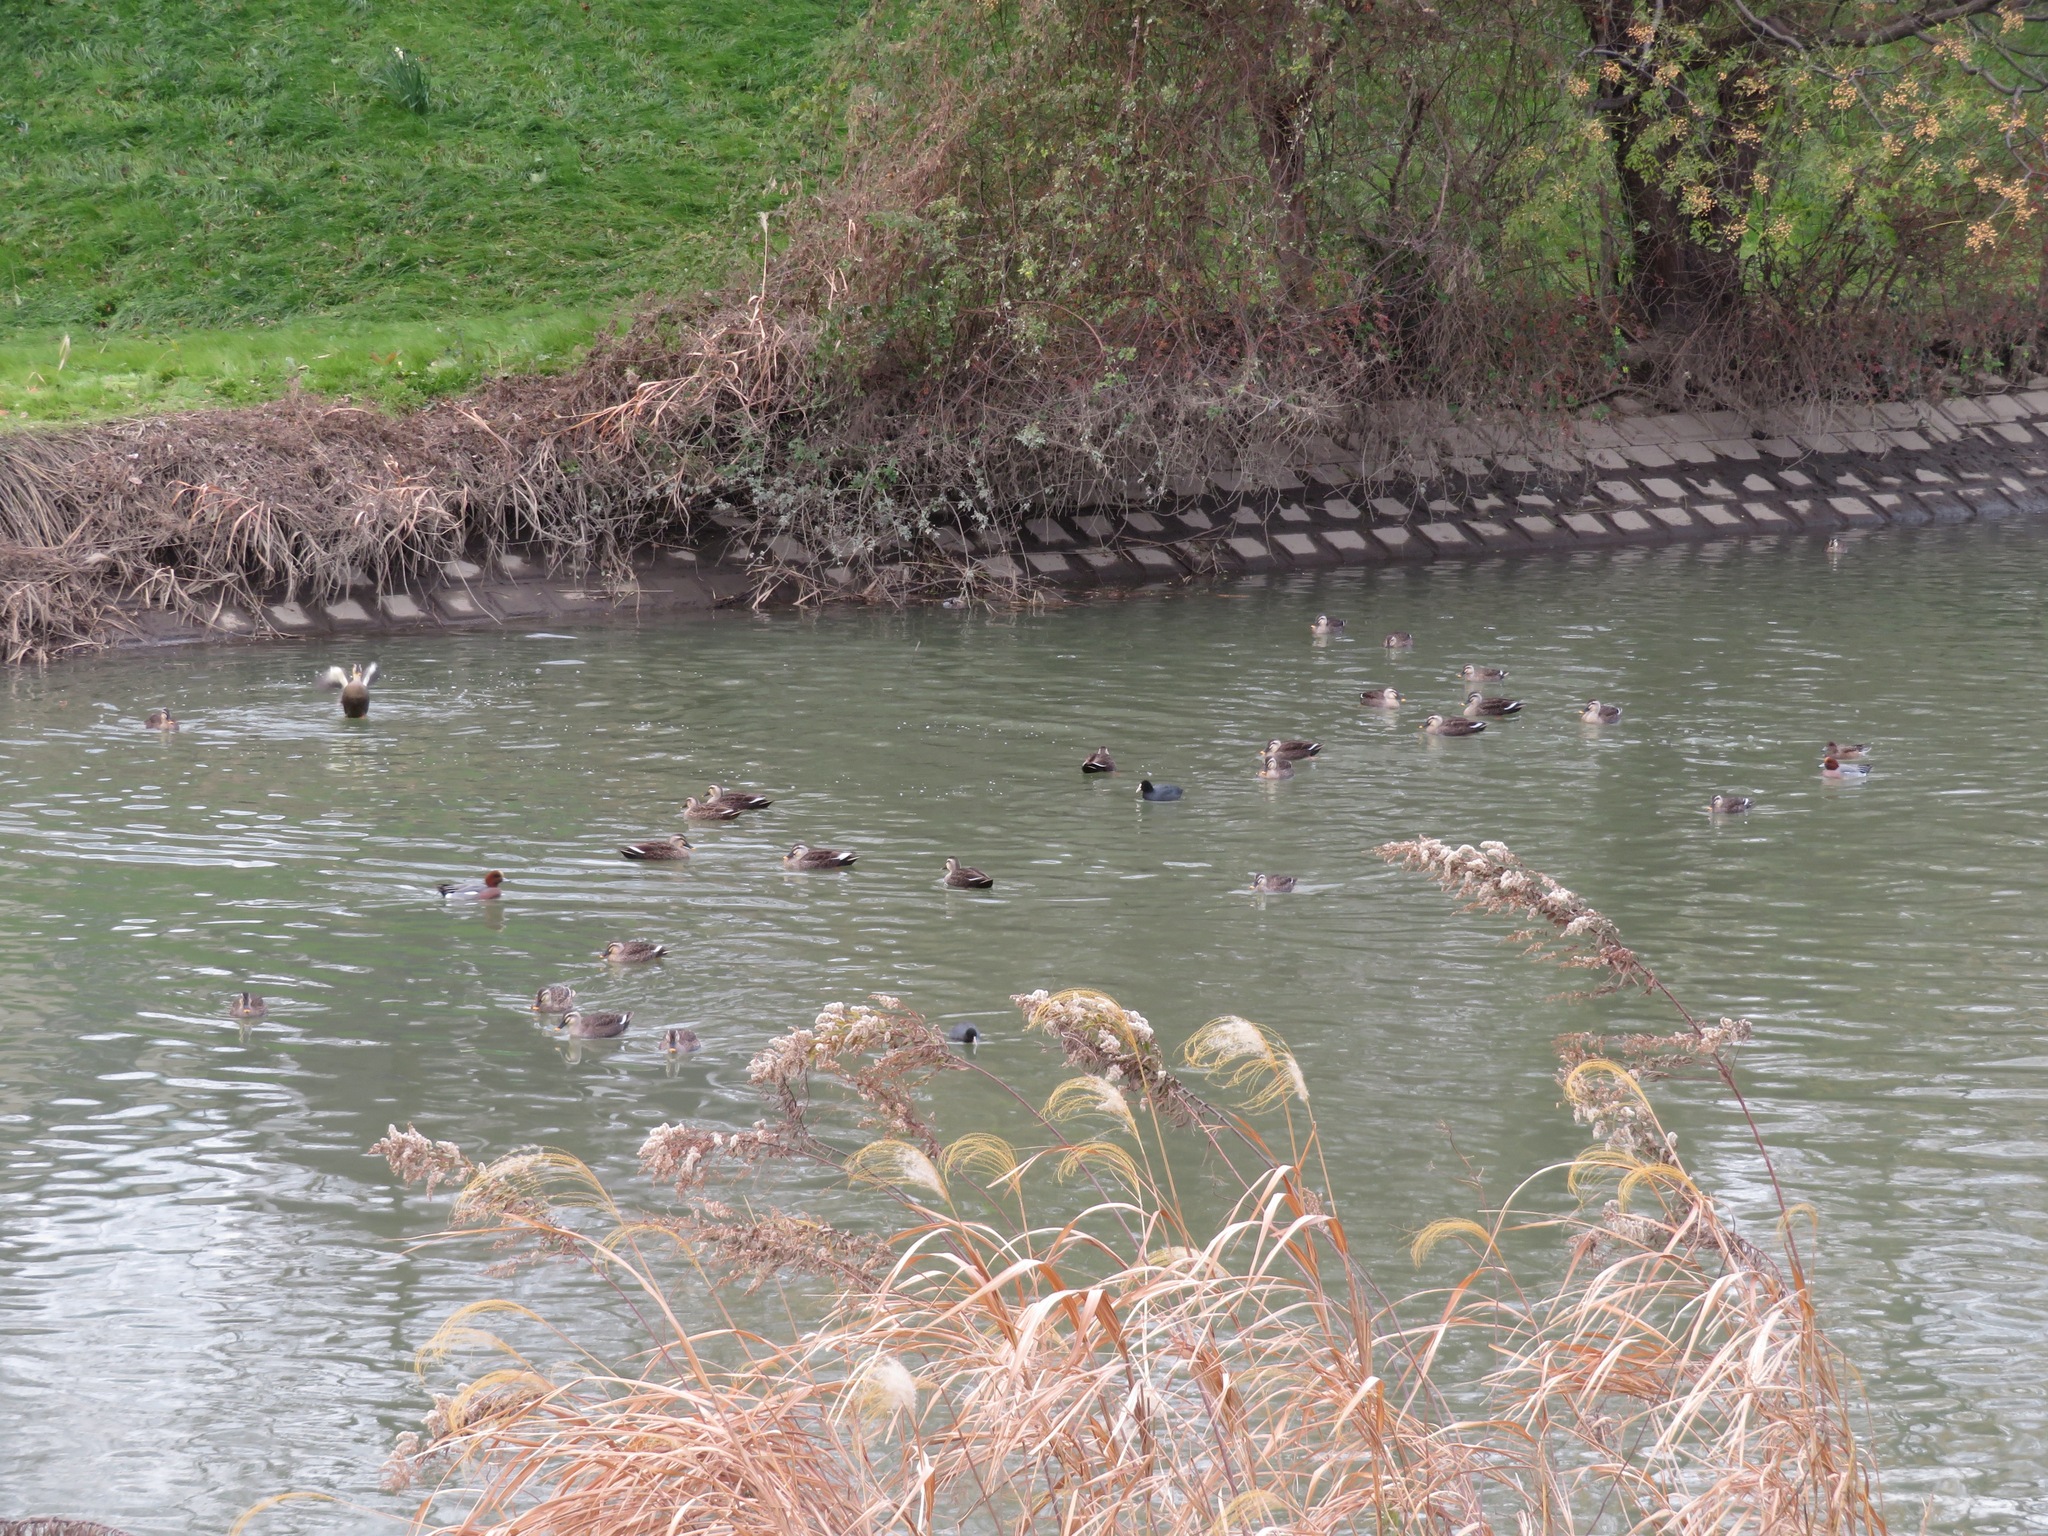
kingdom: Animalia
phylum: Chordata
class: Aves
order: Anseriformes
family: Anatidae
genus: Anas
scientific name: Anas zonorhyncha
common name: Eastern spot-billed duck
